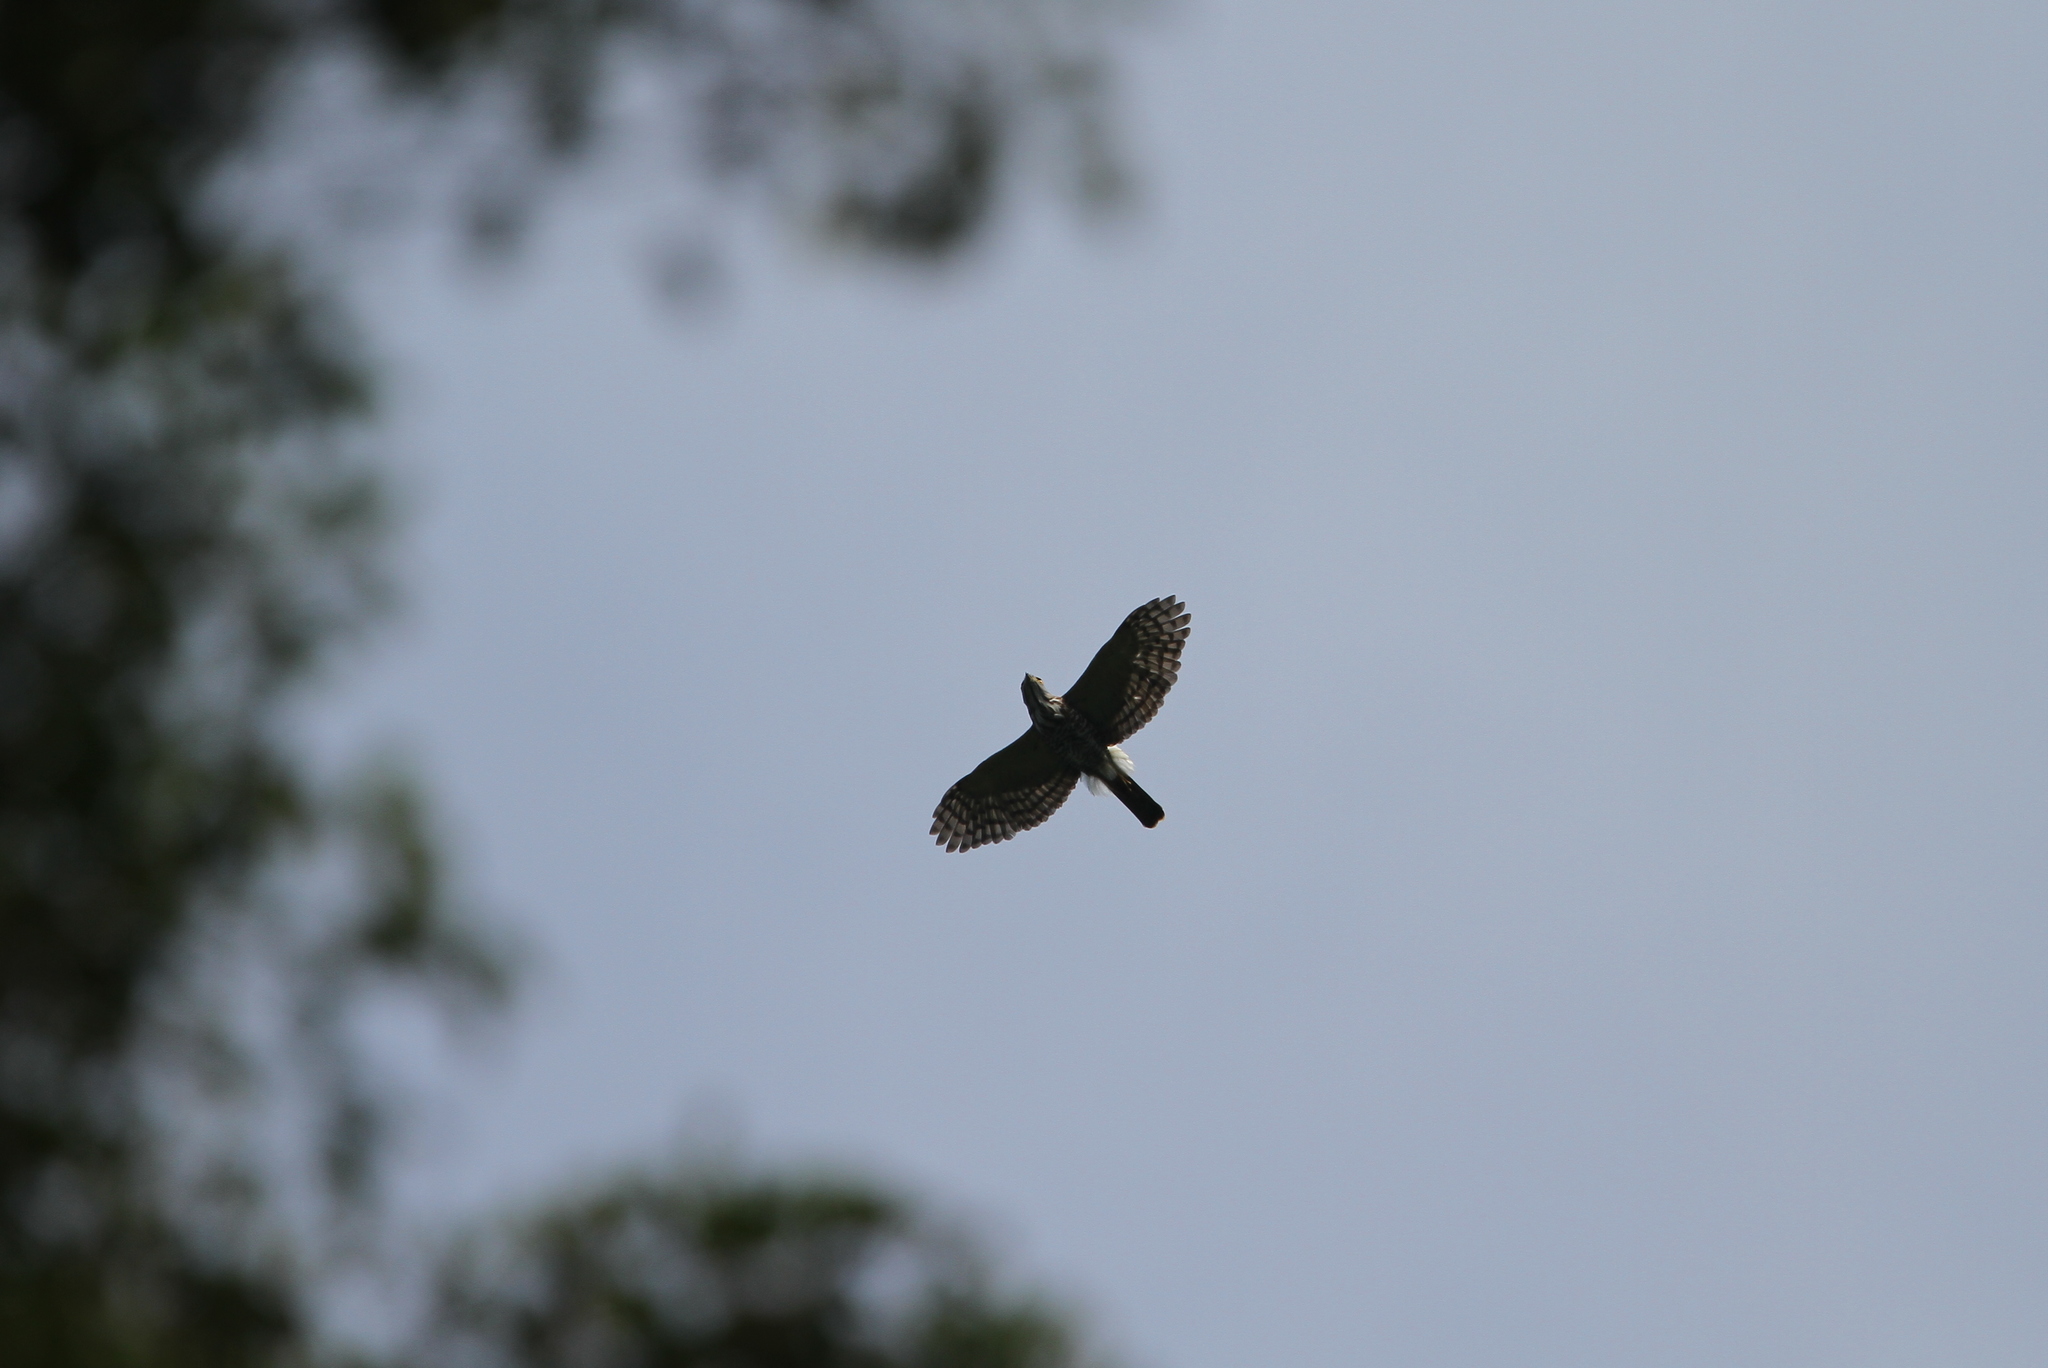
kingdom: Animalia
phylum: Chordata
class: Aves
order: Accipitriformes
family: Accipitridae
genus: Accipiter
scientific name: Accipiter trivirgatus
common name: Crested goshawk
